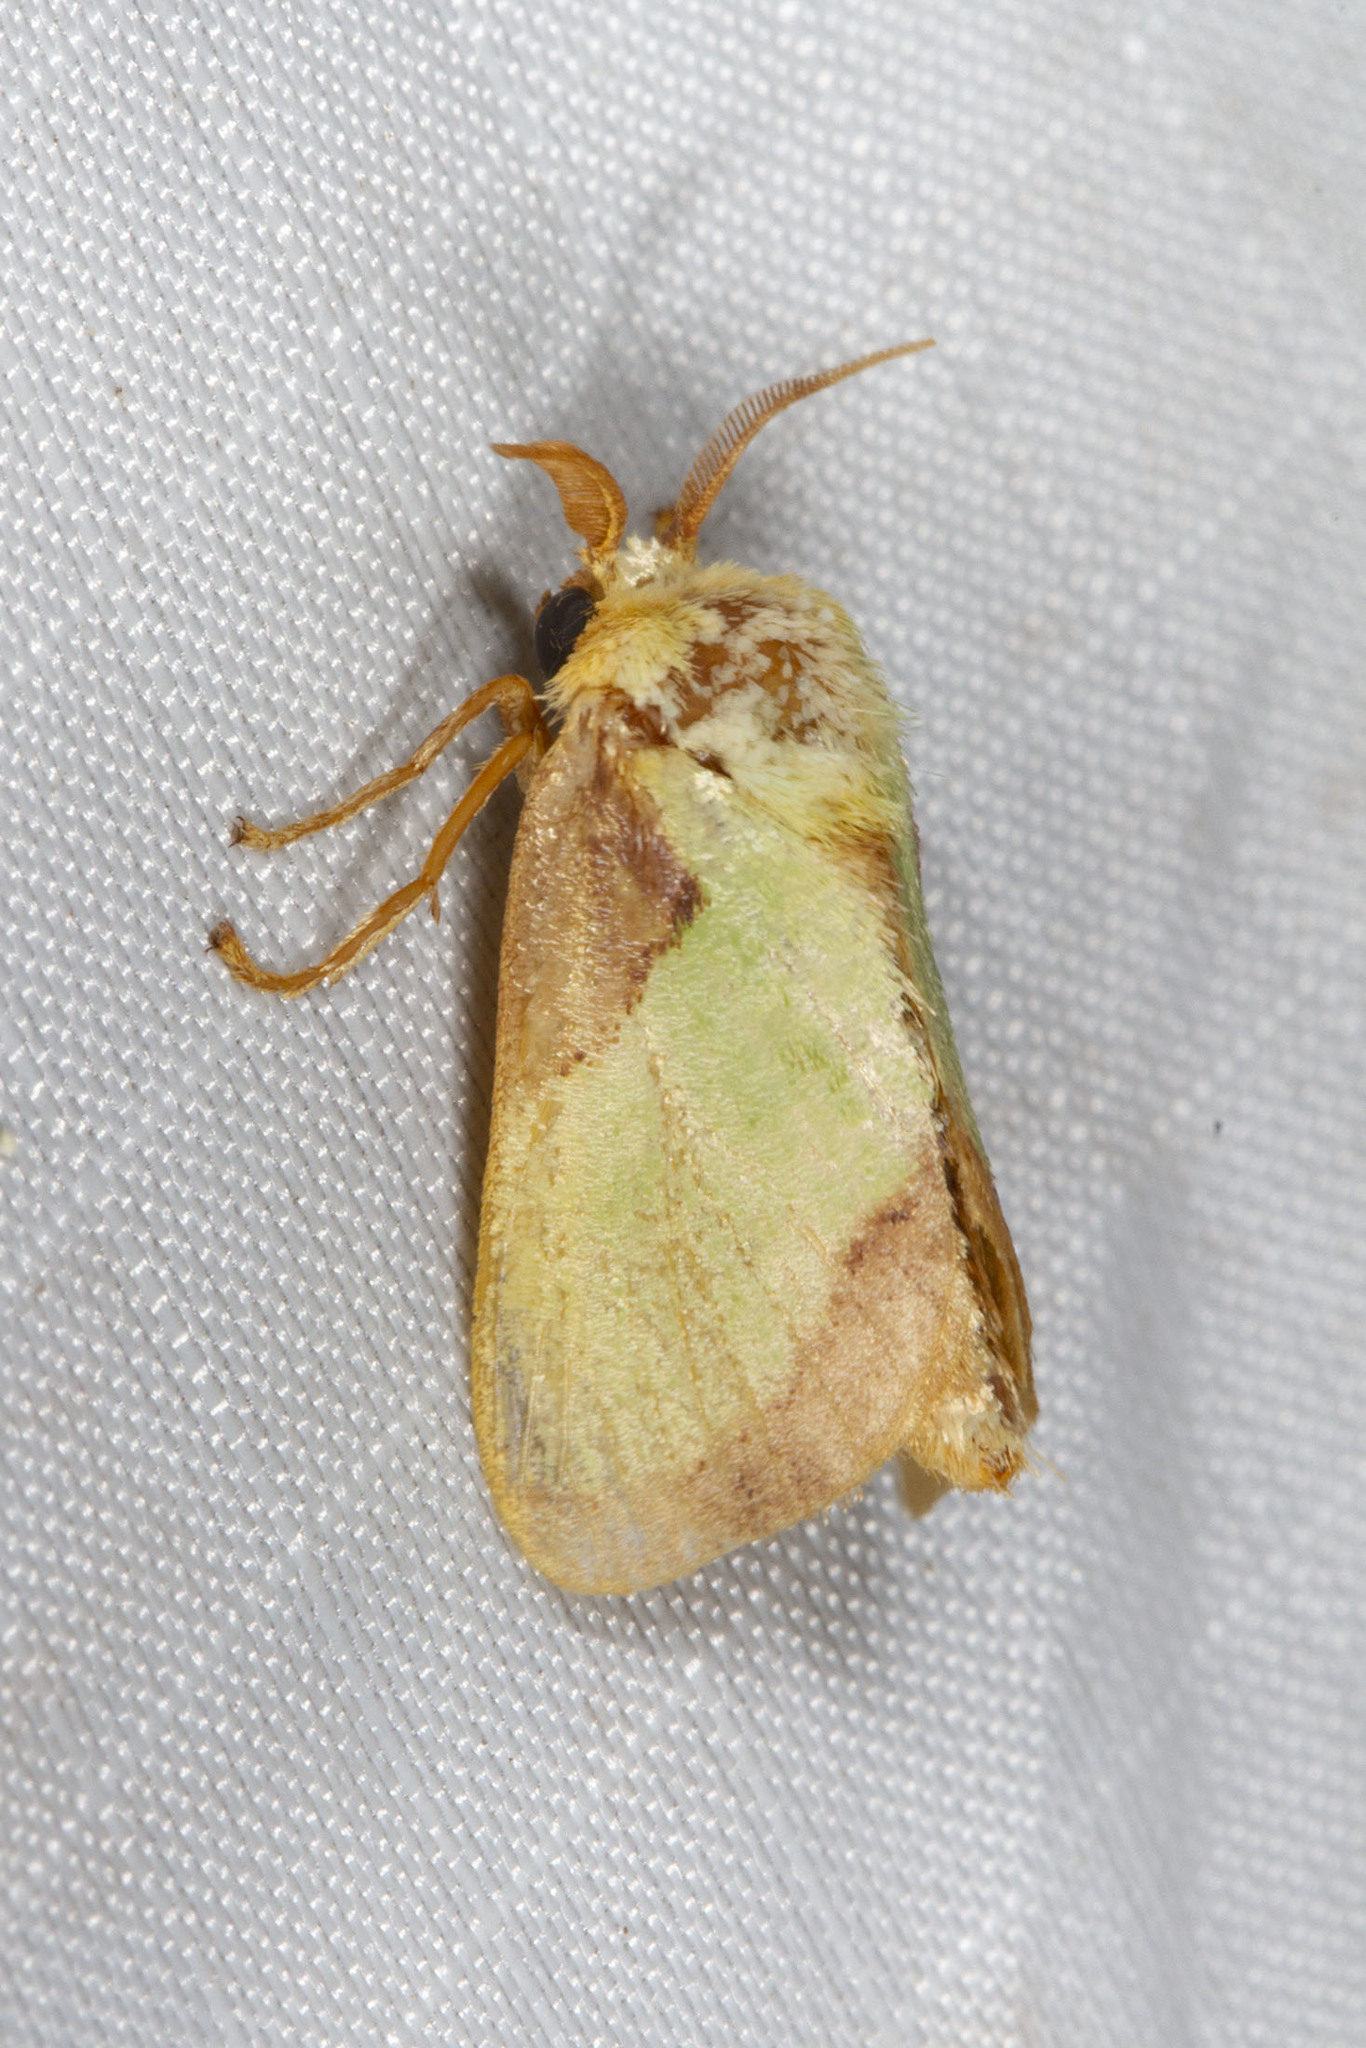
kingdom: Animalia
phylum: Arthropoda
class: Insecta
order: Lepidoptera
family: Limacodidae
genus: Parasa
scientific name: Parasa indetermina
